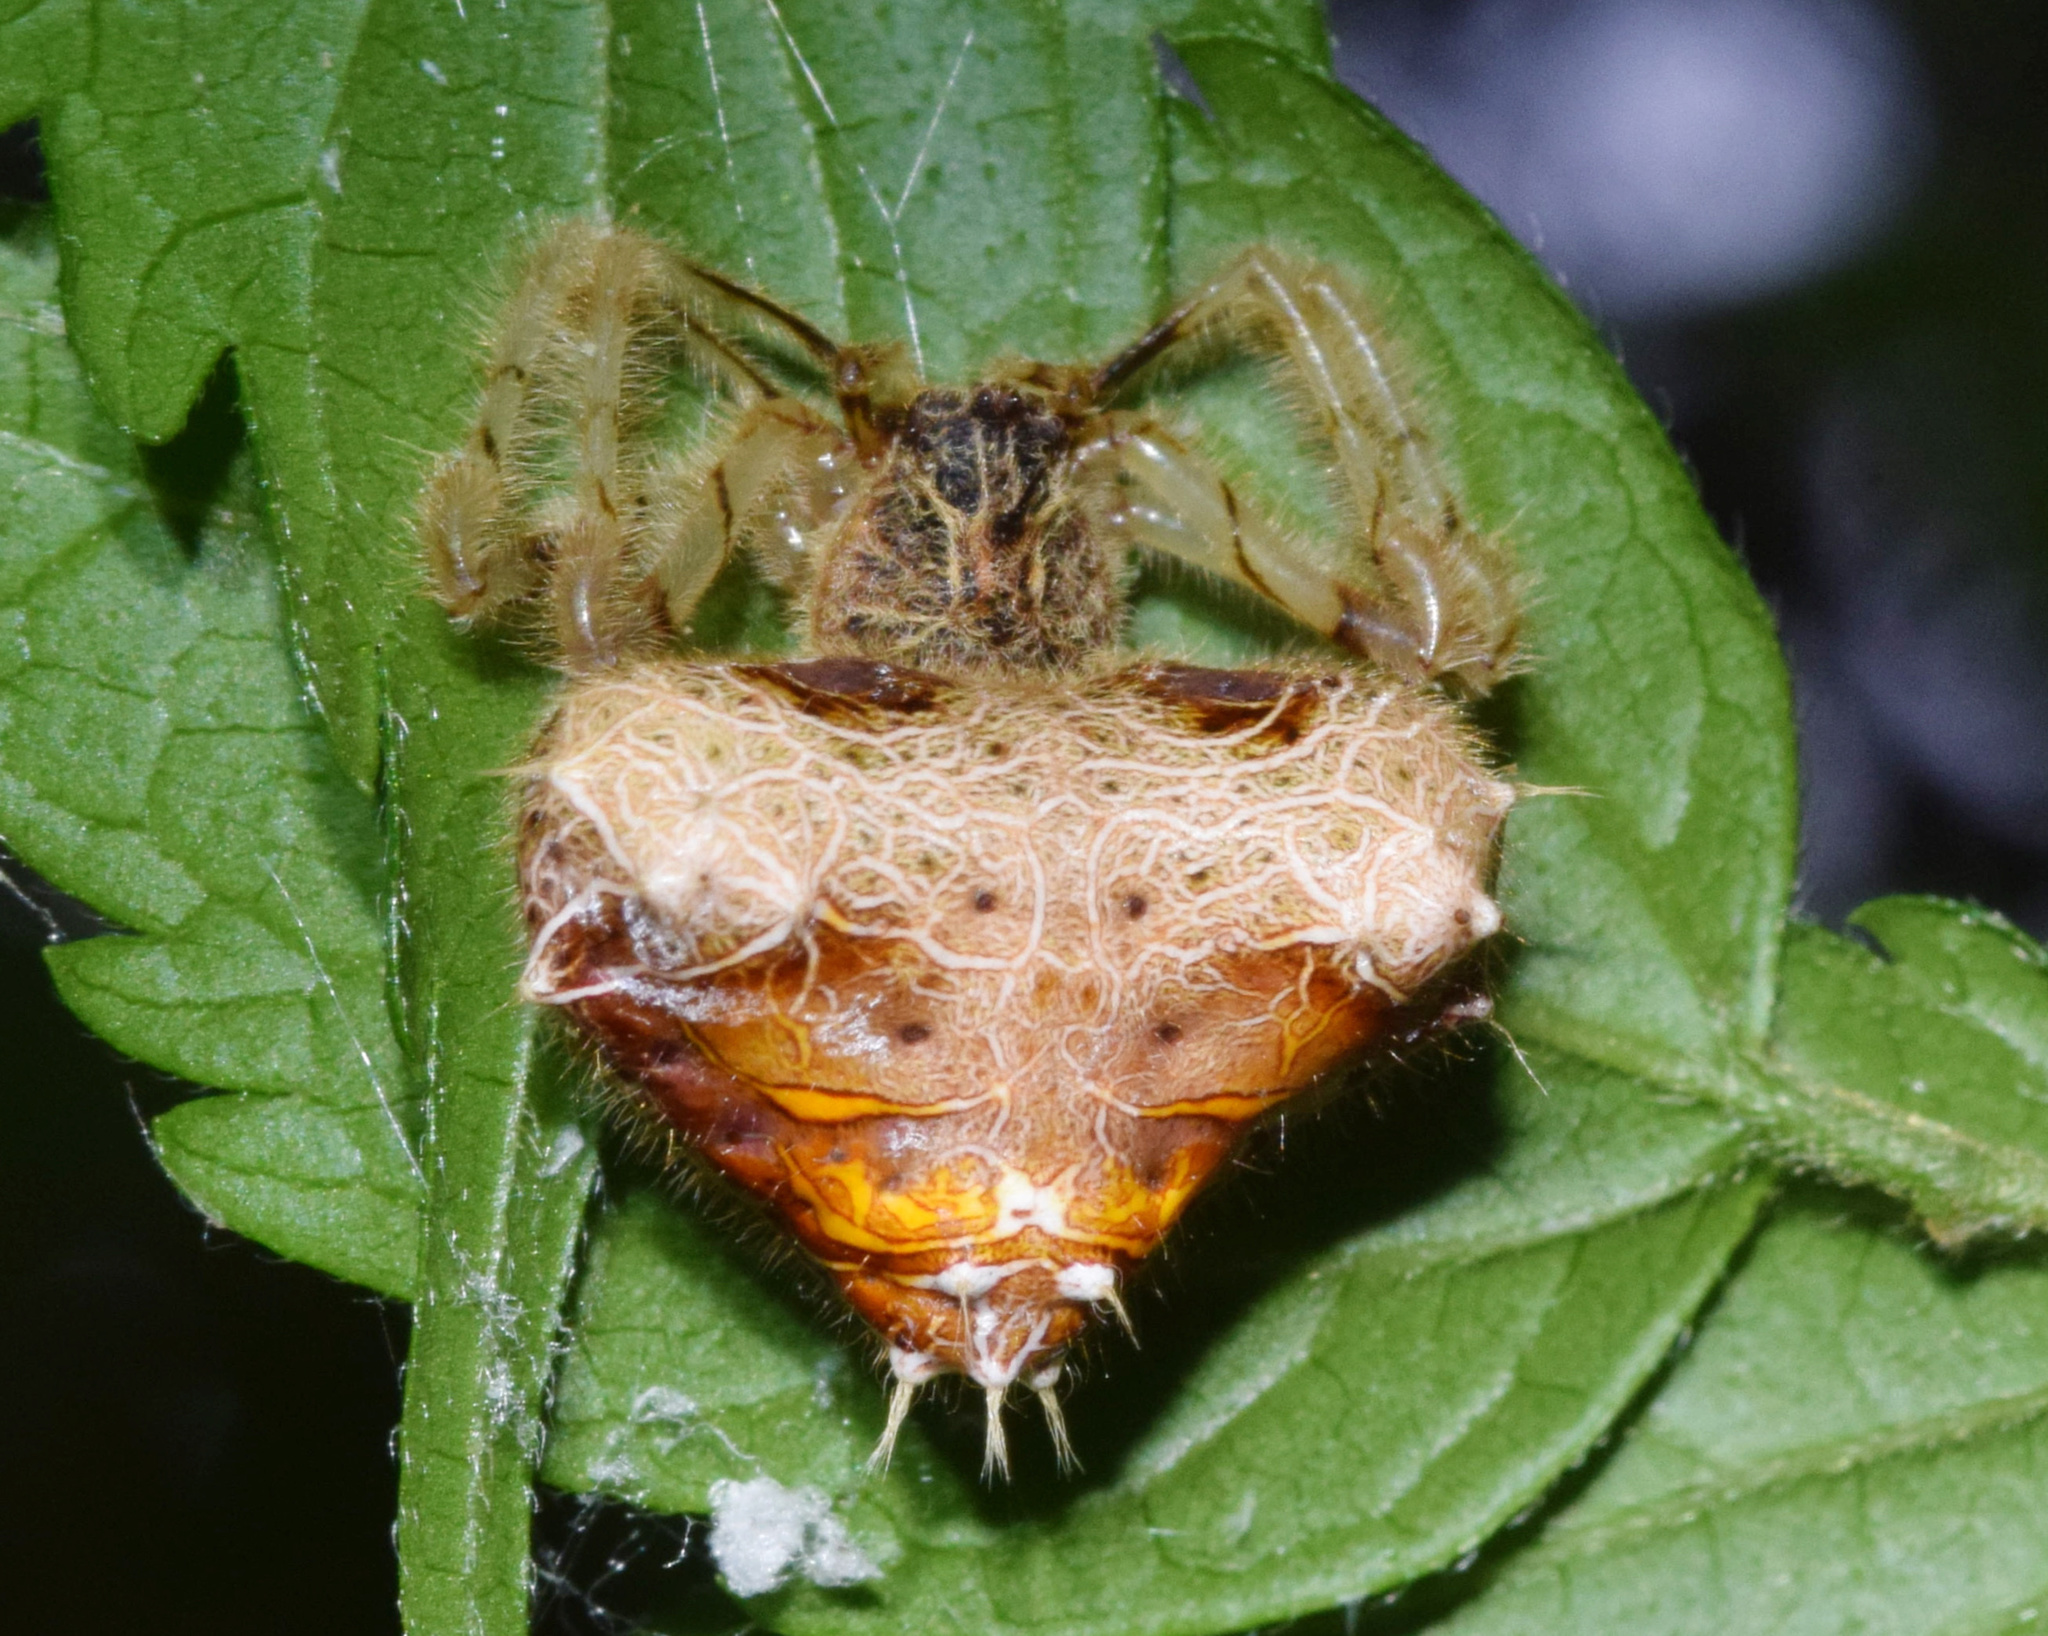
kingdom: Animalia
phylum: Arthropoda
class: Arachnida
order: Araneae
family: Araneidae
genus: Cladomelea
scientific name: Cladomelea debeeri
